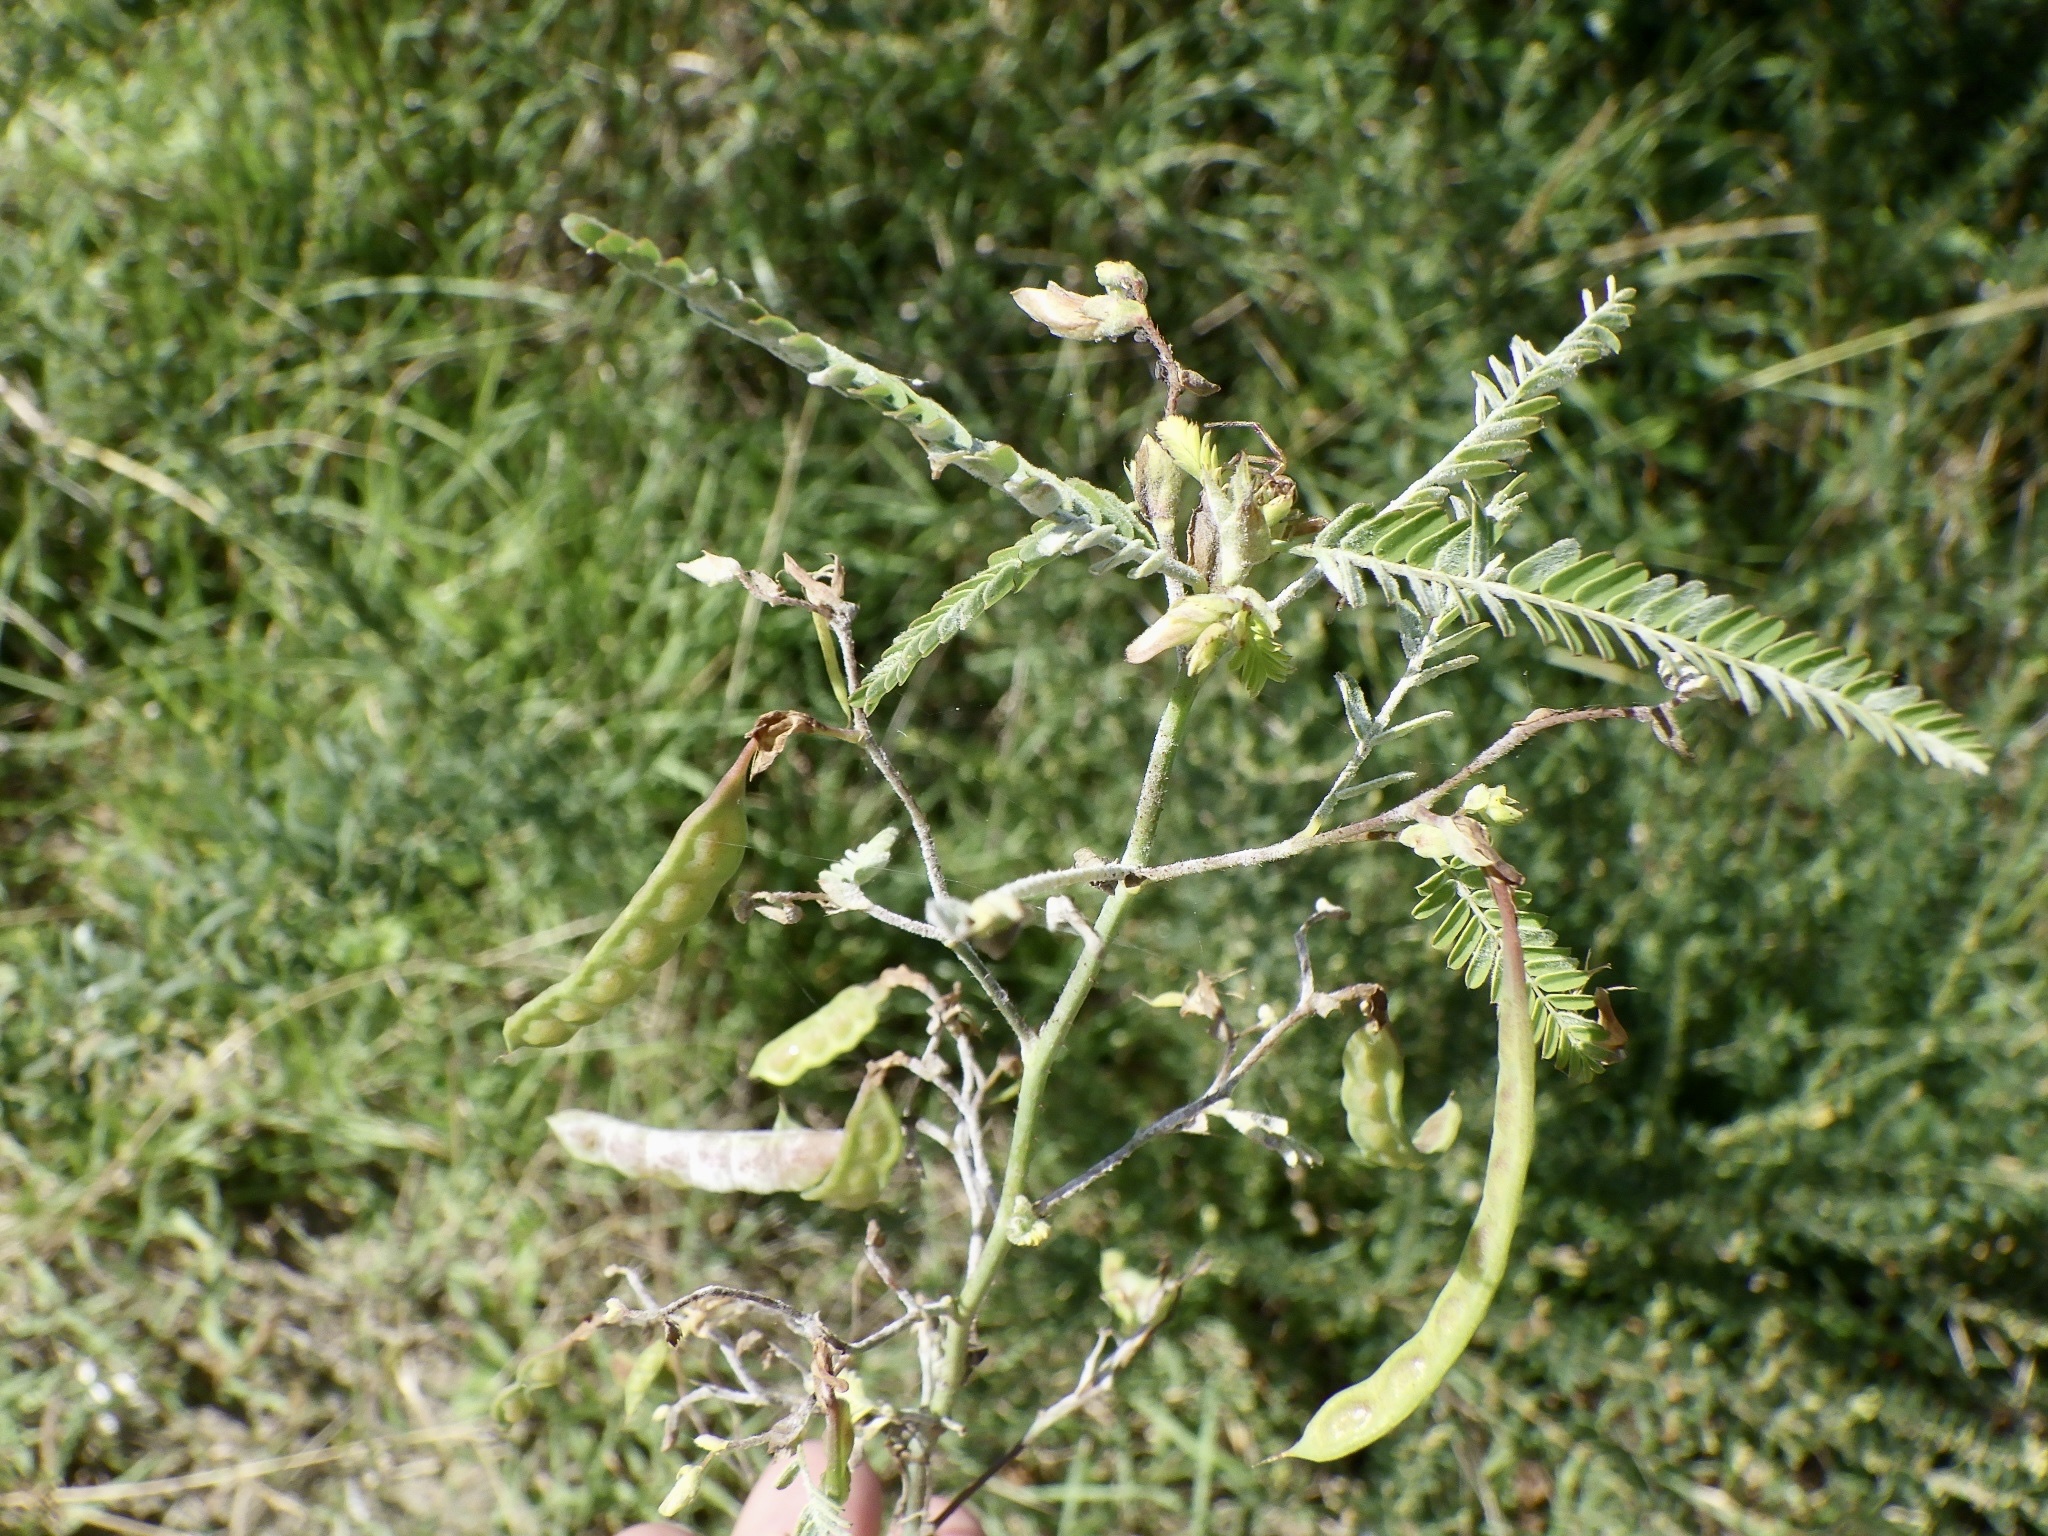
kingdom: Plantae
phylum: Tracheophyta
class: Magnoliopsida
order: Fabales
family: Fabaceae
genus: Aeschynomene
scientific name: Aeschynomene indica
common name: Indian jointvetch
